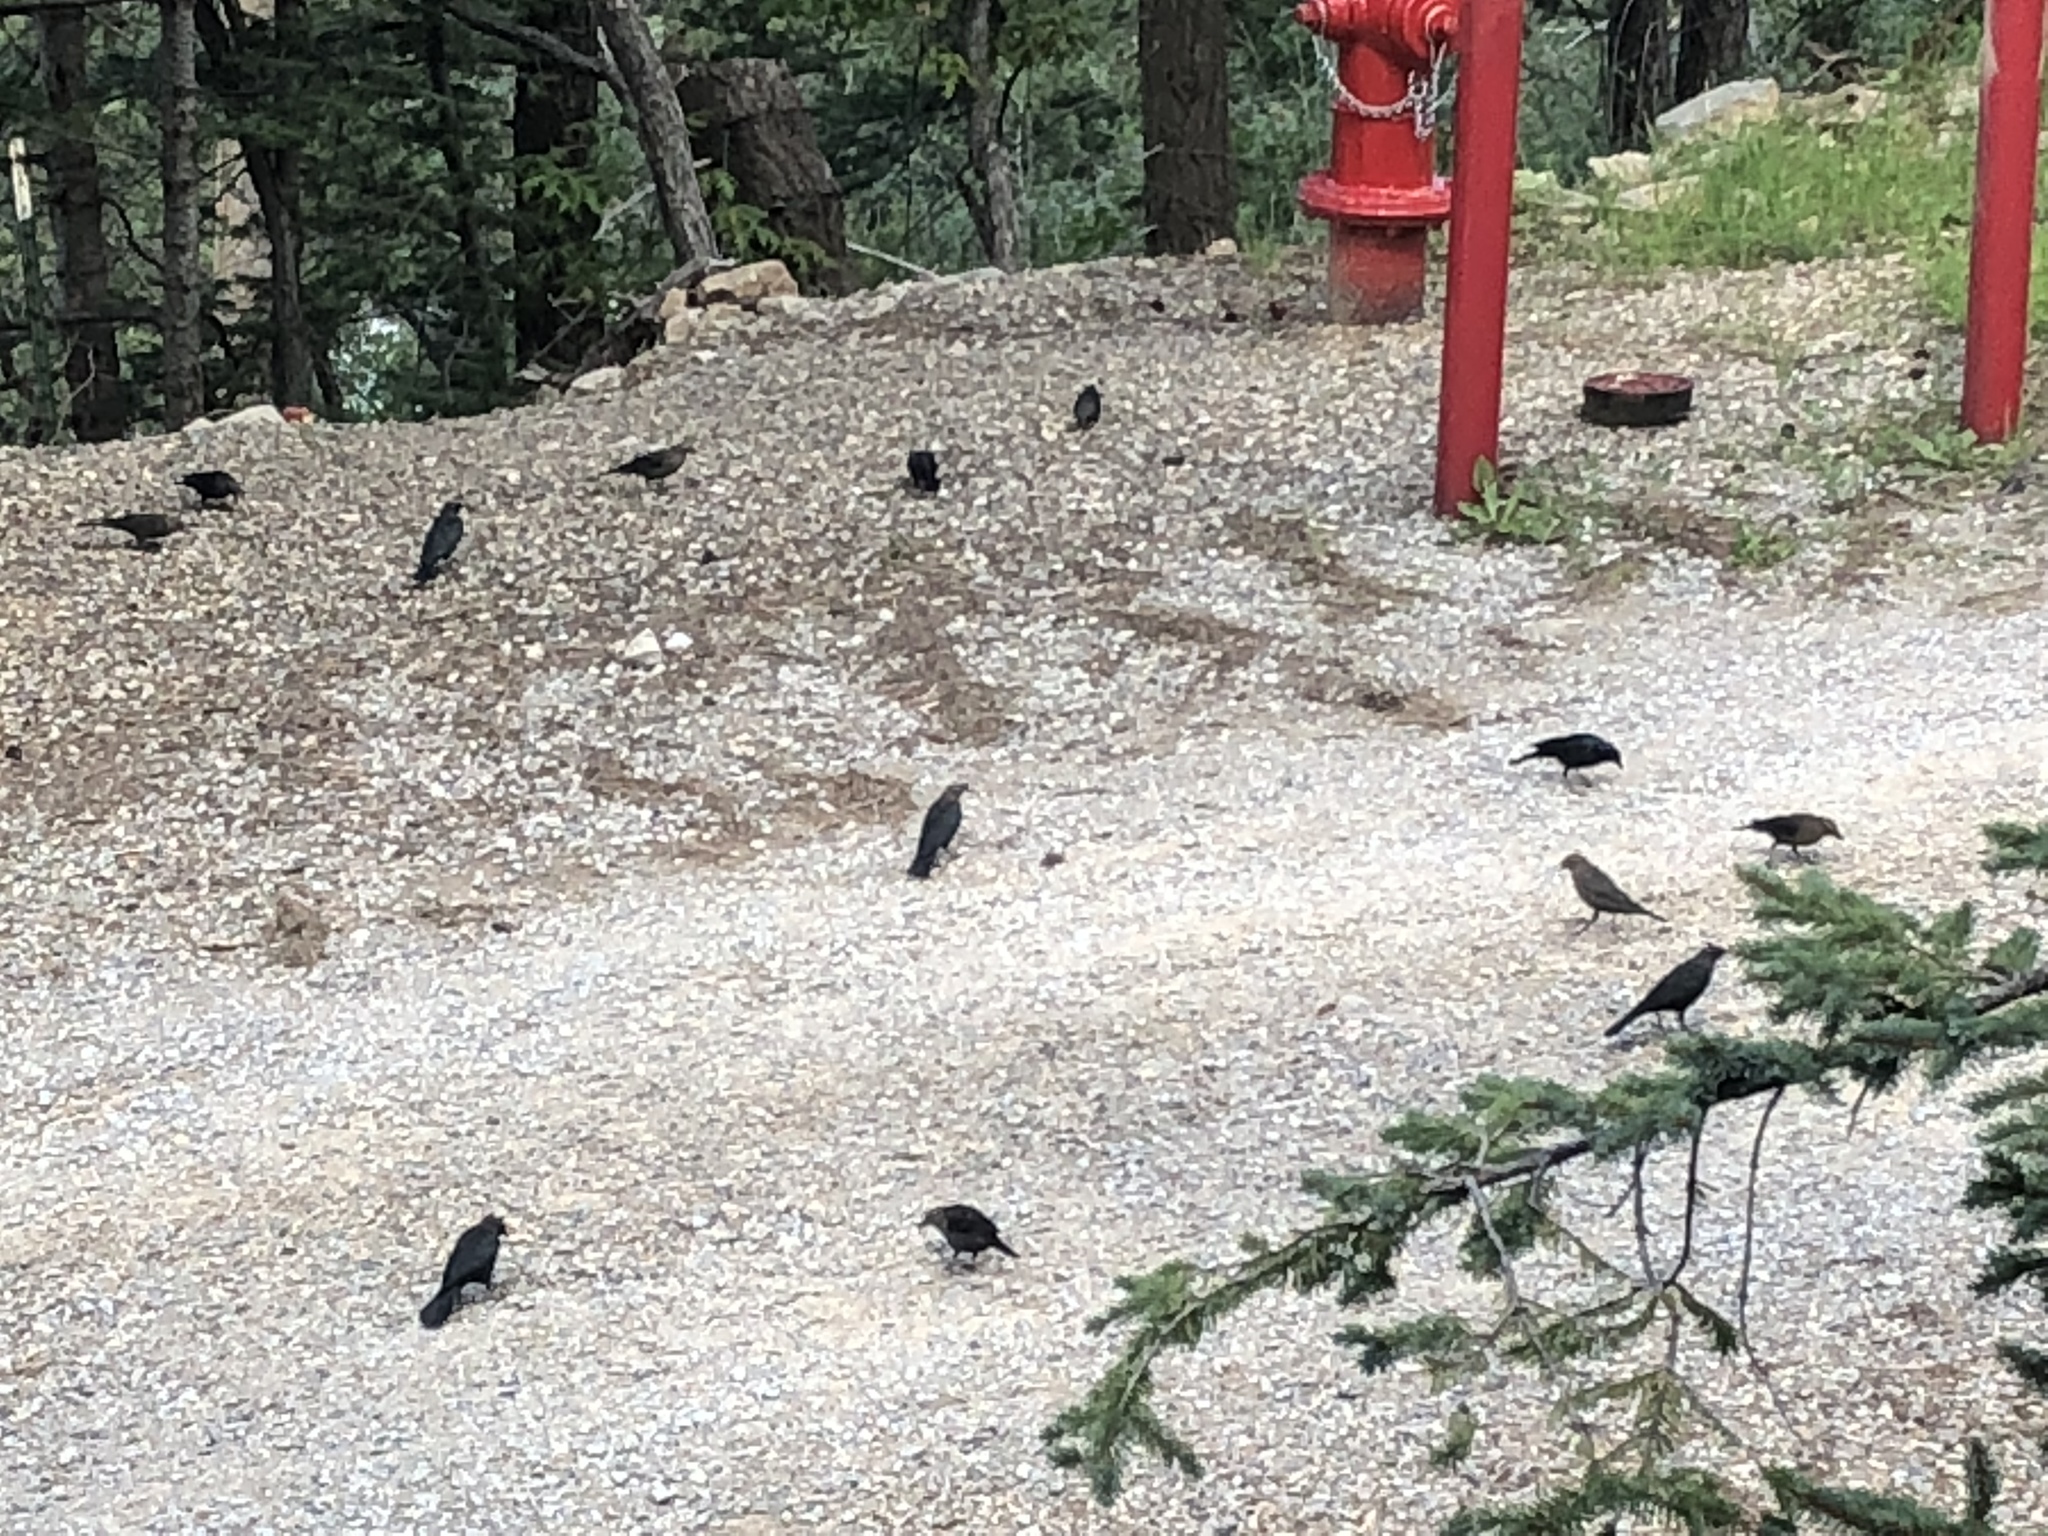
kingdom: Animalia
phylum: Chordata
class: Aves
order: Passeriformes
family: Icteridae
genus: Euphagus
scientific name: Euphagus cyanocephalus
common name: Brewer's blackbird
